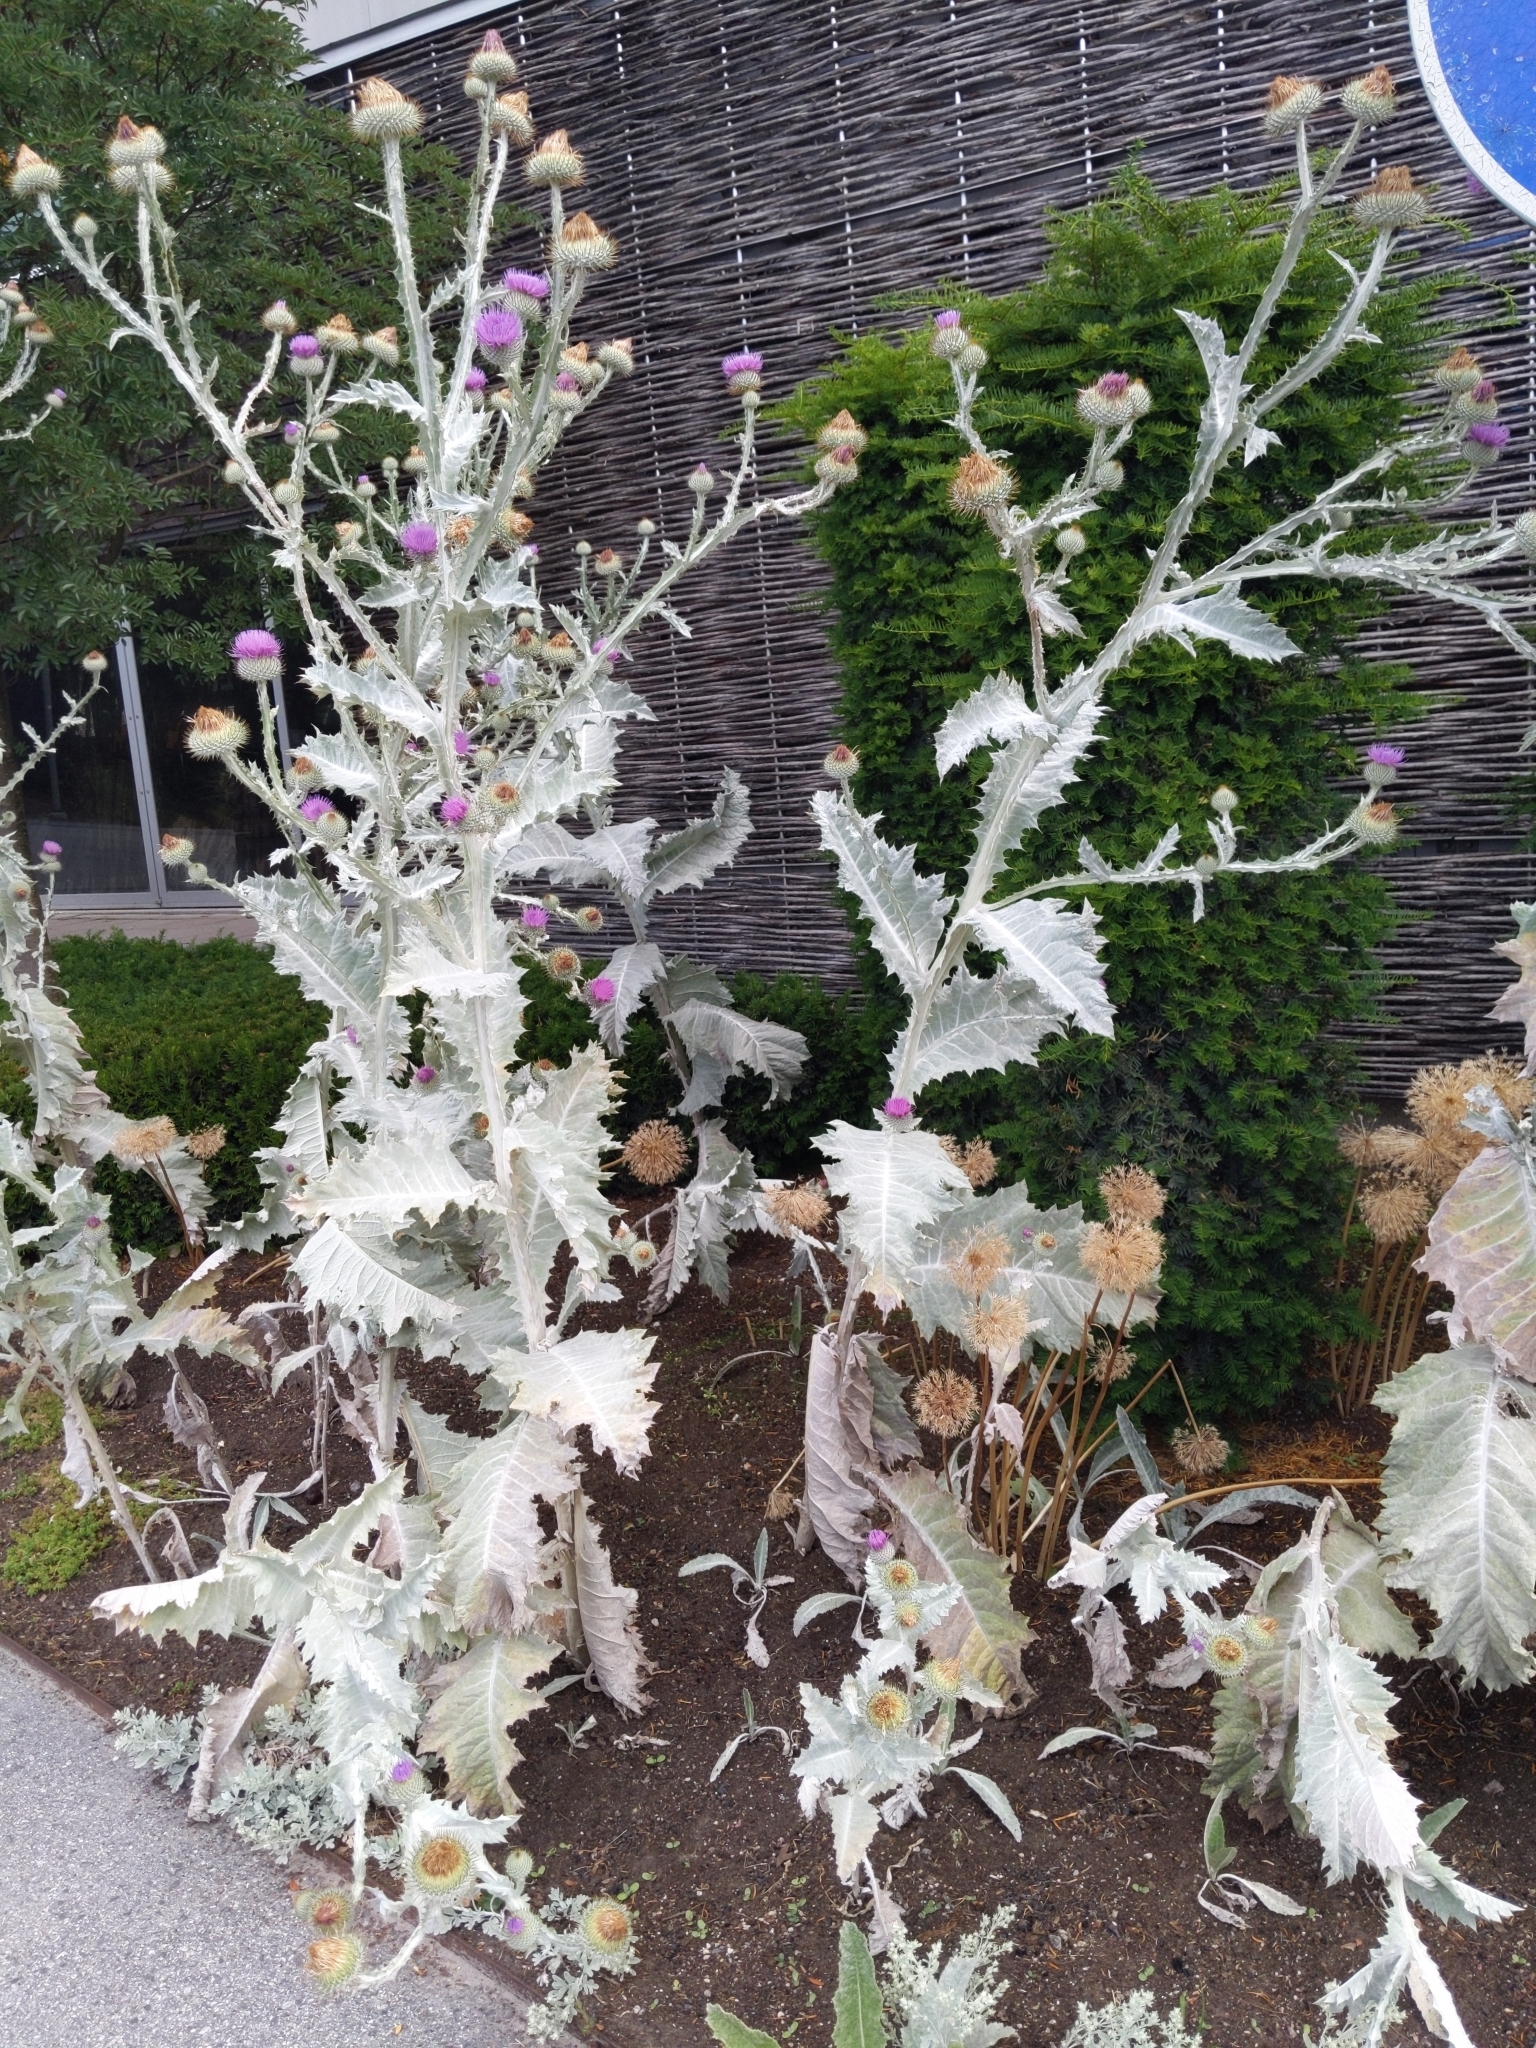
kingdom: Plantae
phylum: Tracheophyta
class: Magnoliopsida
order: Asterales
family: Asteraceae
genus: Onopordum
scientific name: Onopordum acanthium
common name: Scotch thistle
